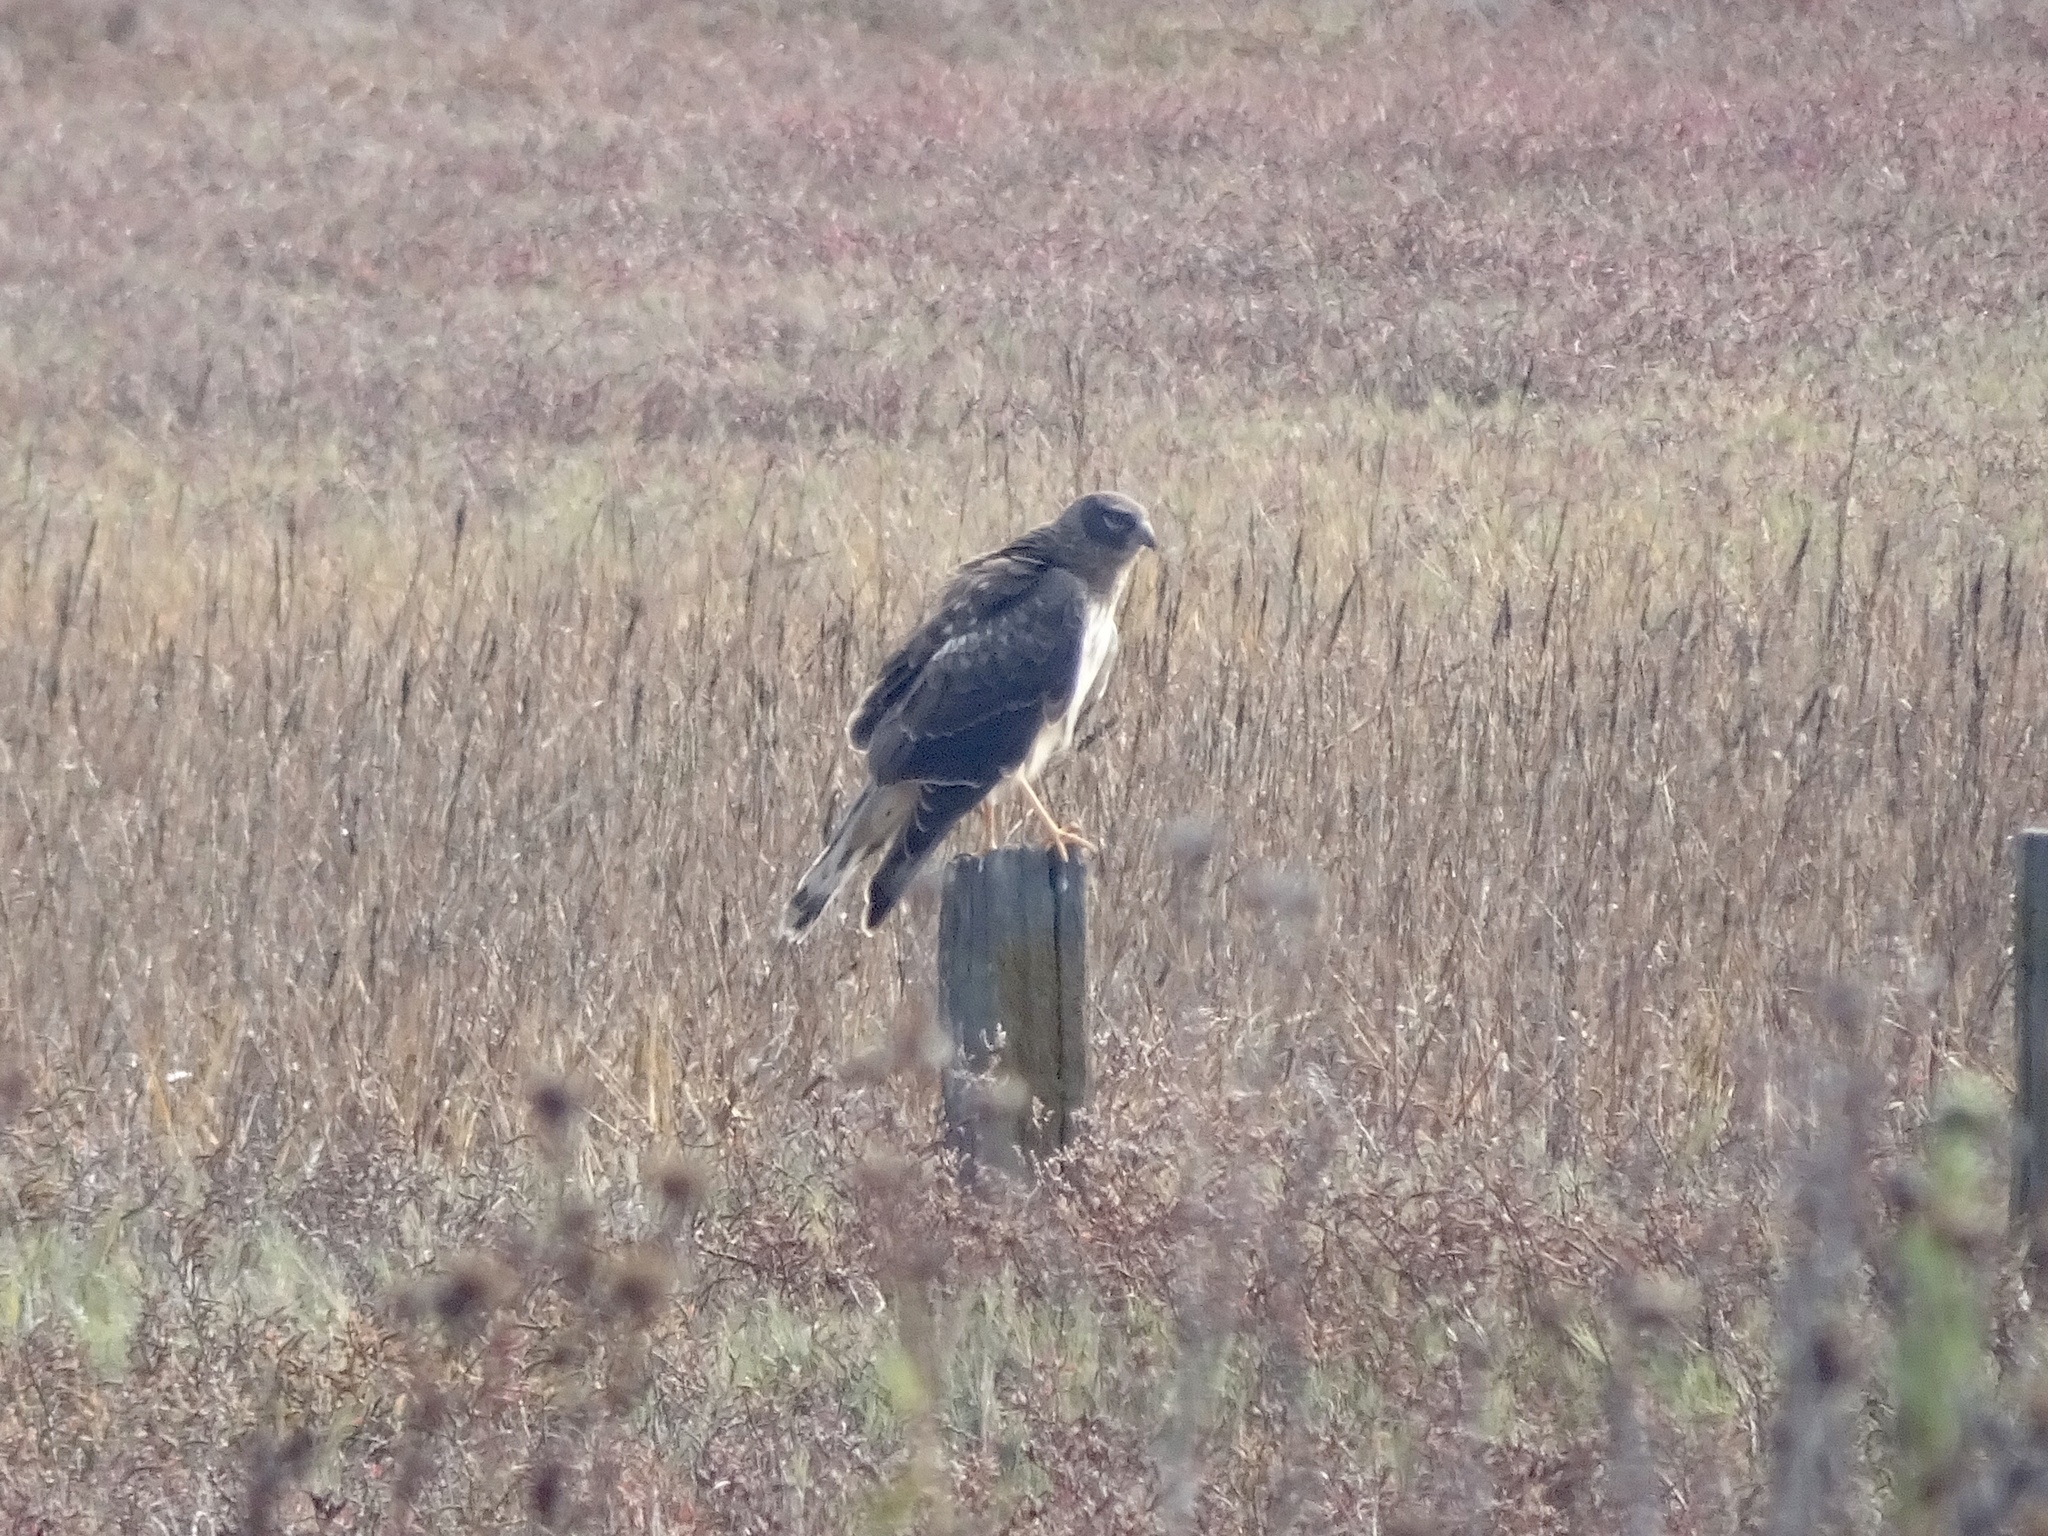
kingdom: Animalia
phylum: Chordata
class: Aves
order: Accipitriformes
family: Accipitridae
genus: Circus
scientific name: Circus cyaneus
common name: Hen harrier
